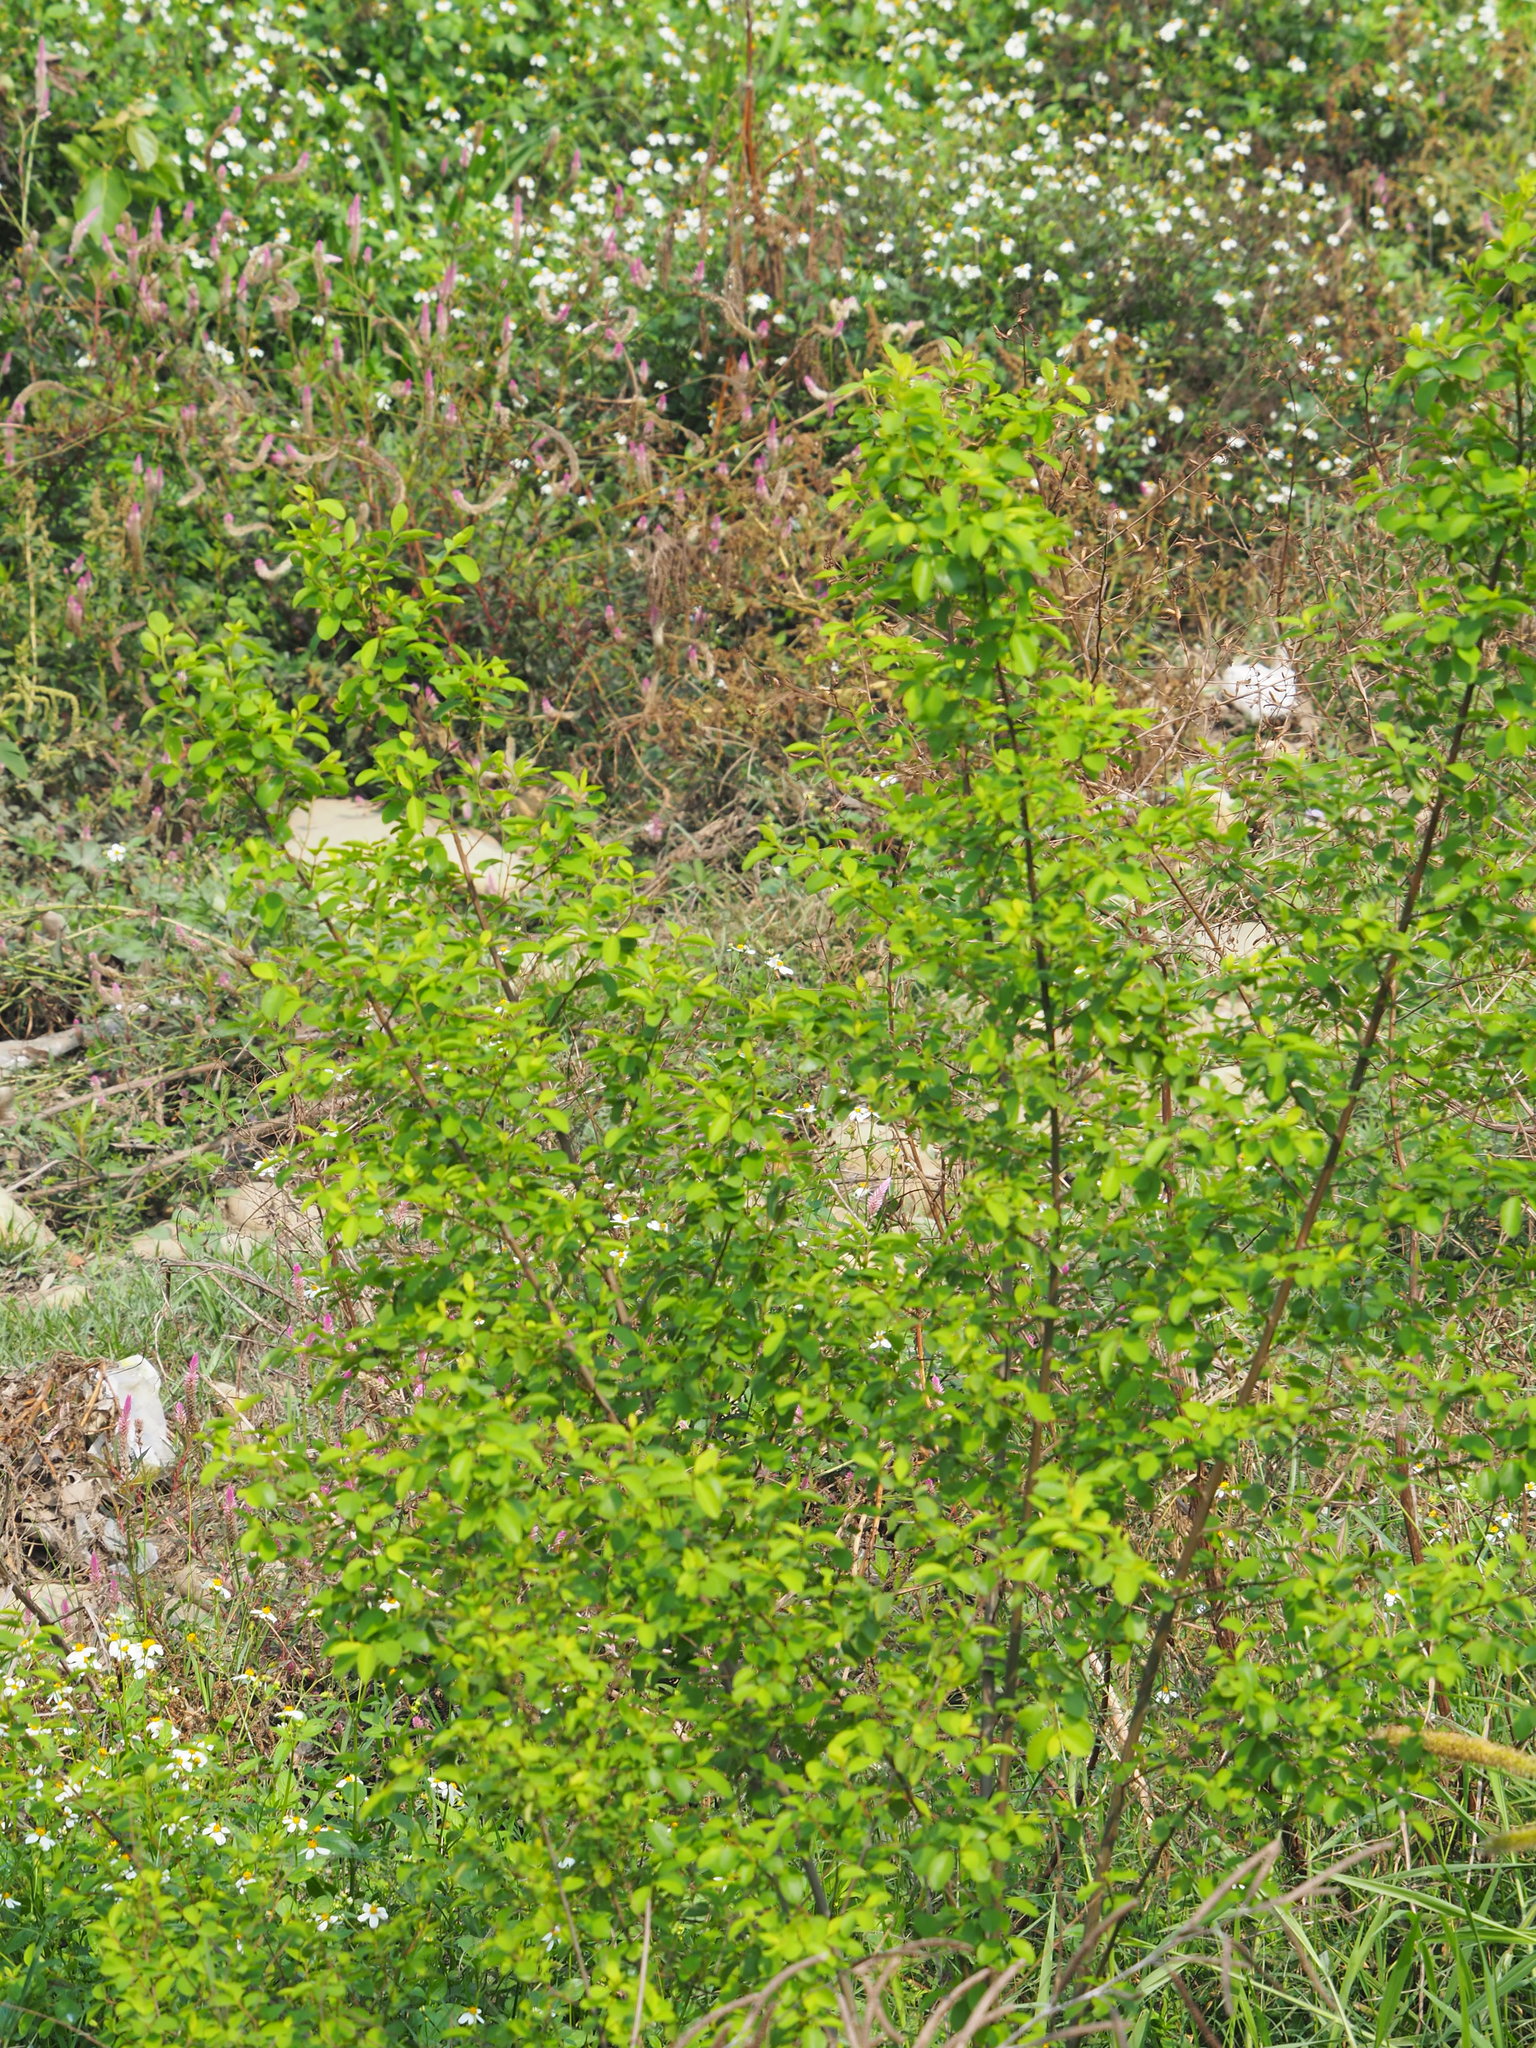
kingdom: Plantae
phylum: Tracheophyta
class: Magnoliopsida
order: Malpighiales
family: Phyllanthaceae
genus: Flueggea
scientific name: Flueggea virosa
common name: Common bushweed
